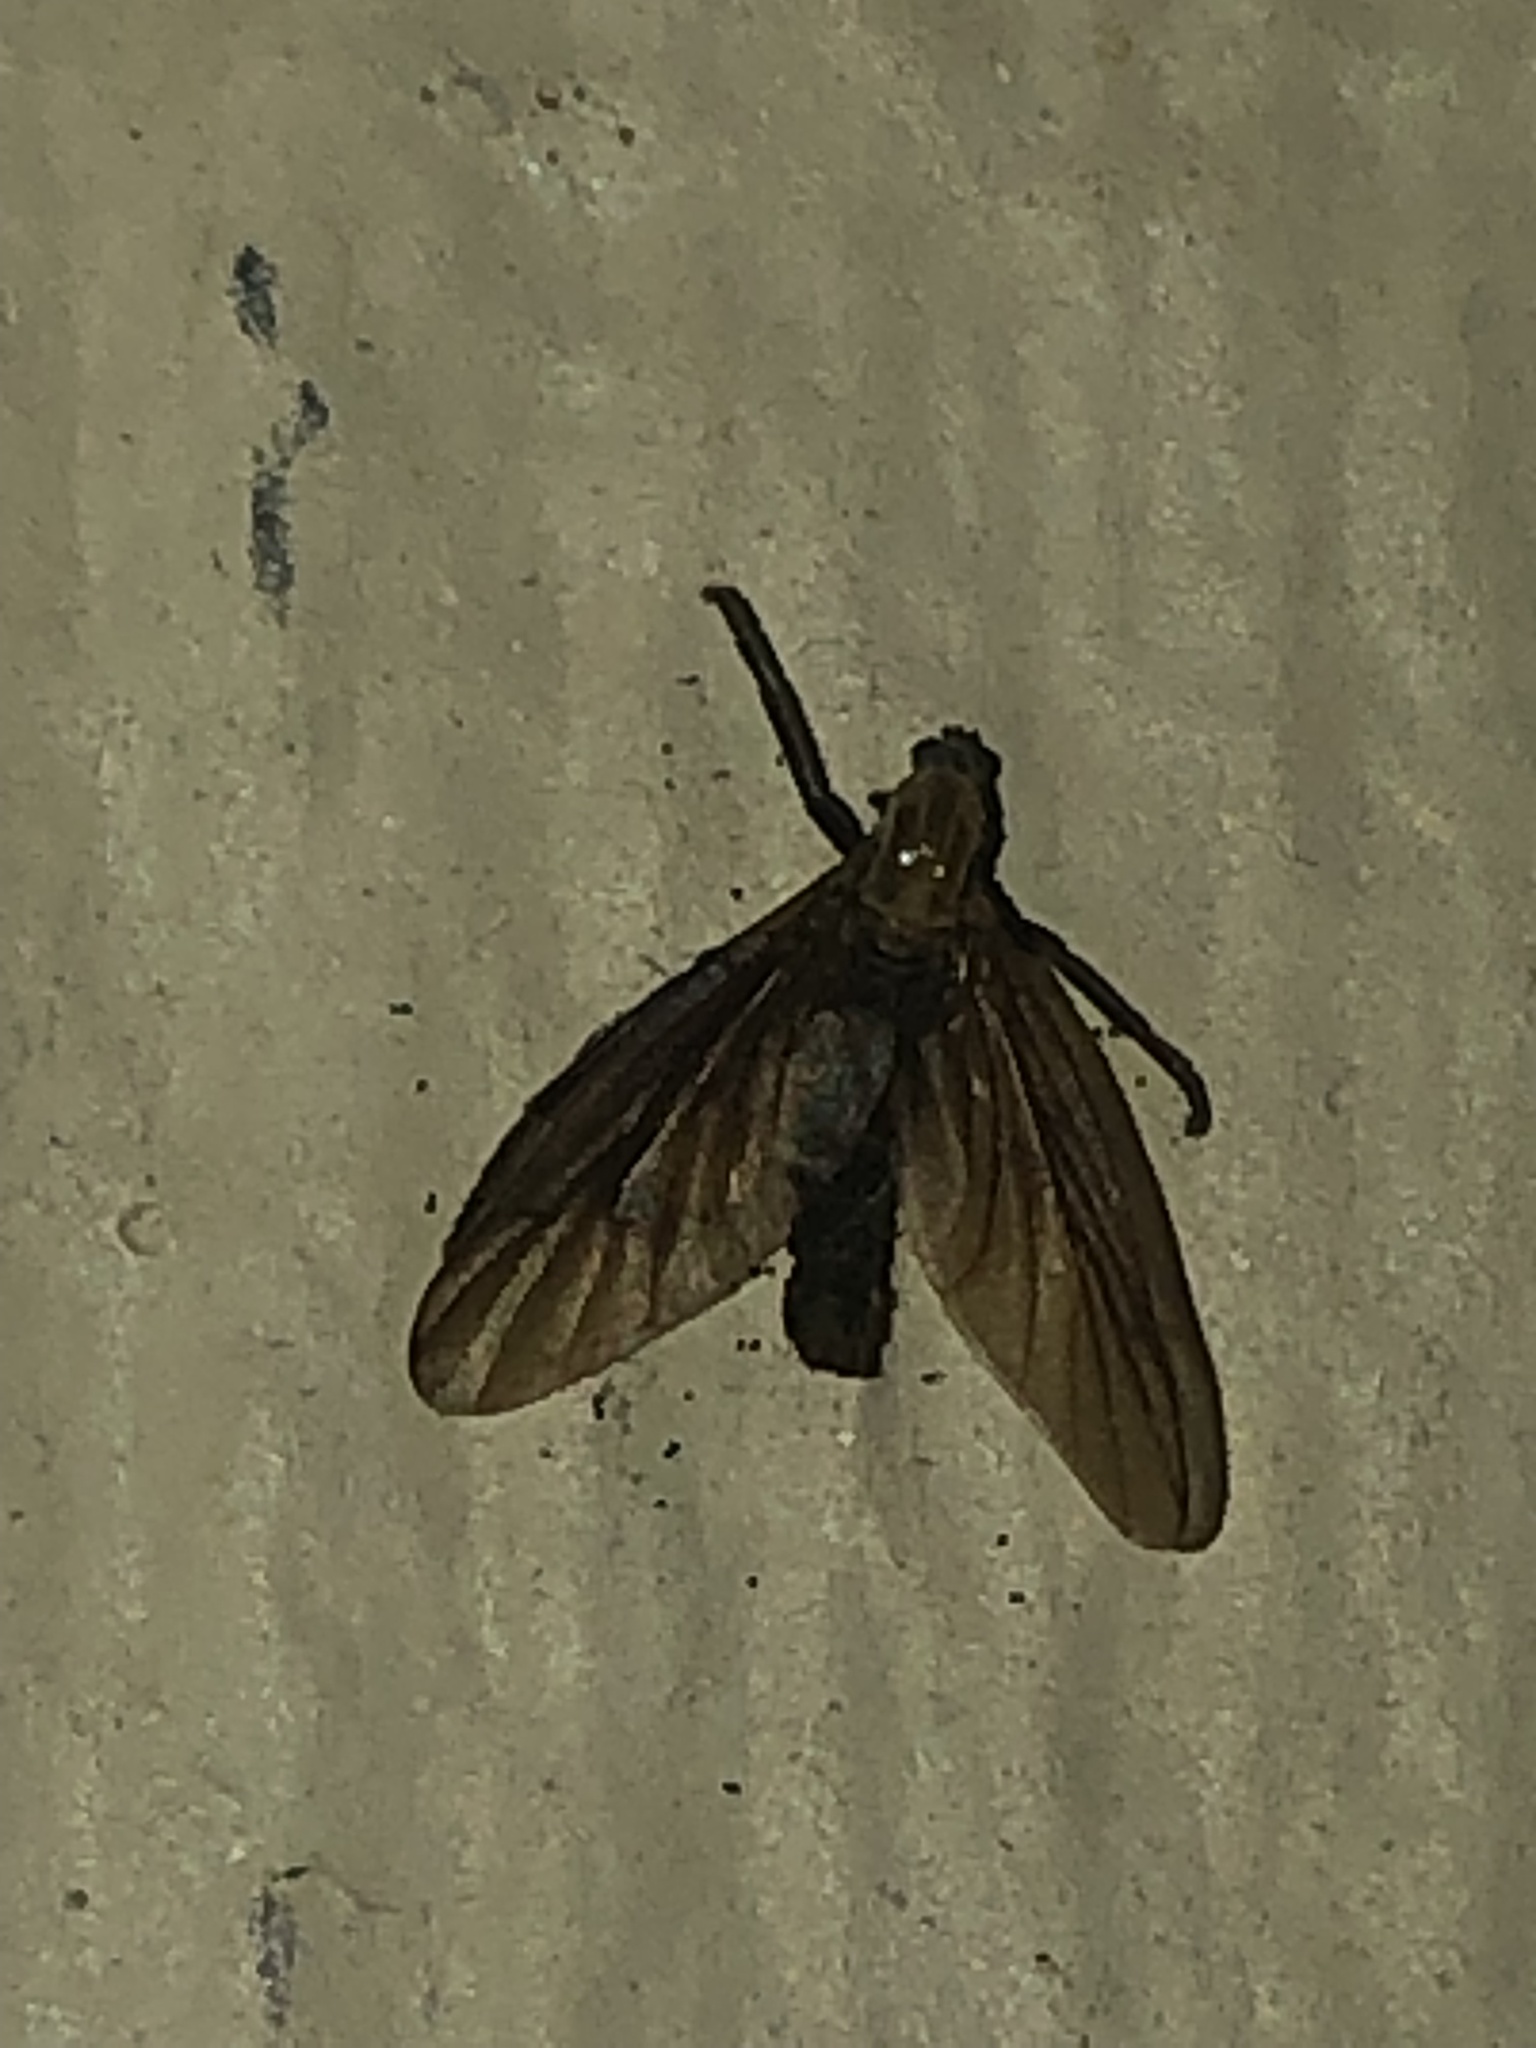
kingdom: Animalia
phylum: Arthropoda
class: Insecta
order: Diptera
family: Bibionidae
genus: Plecia
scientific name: Plecia nearctica
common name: March fly
